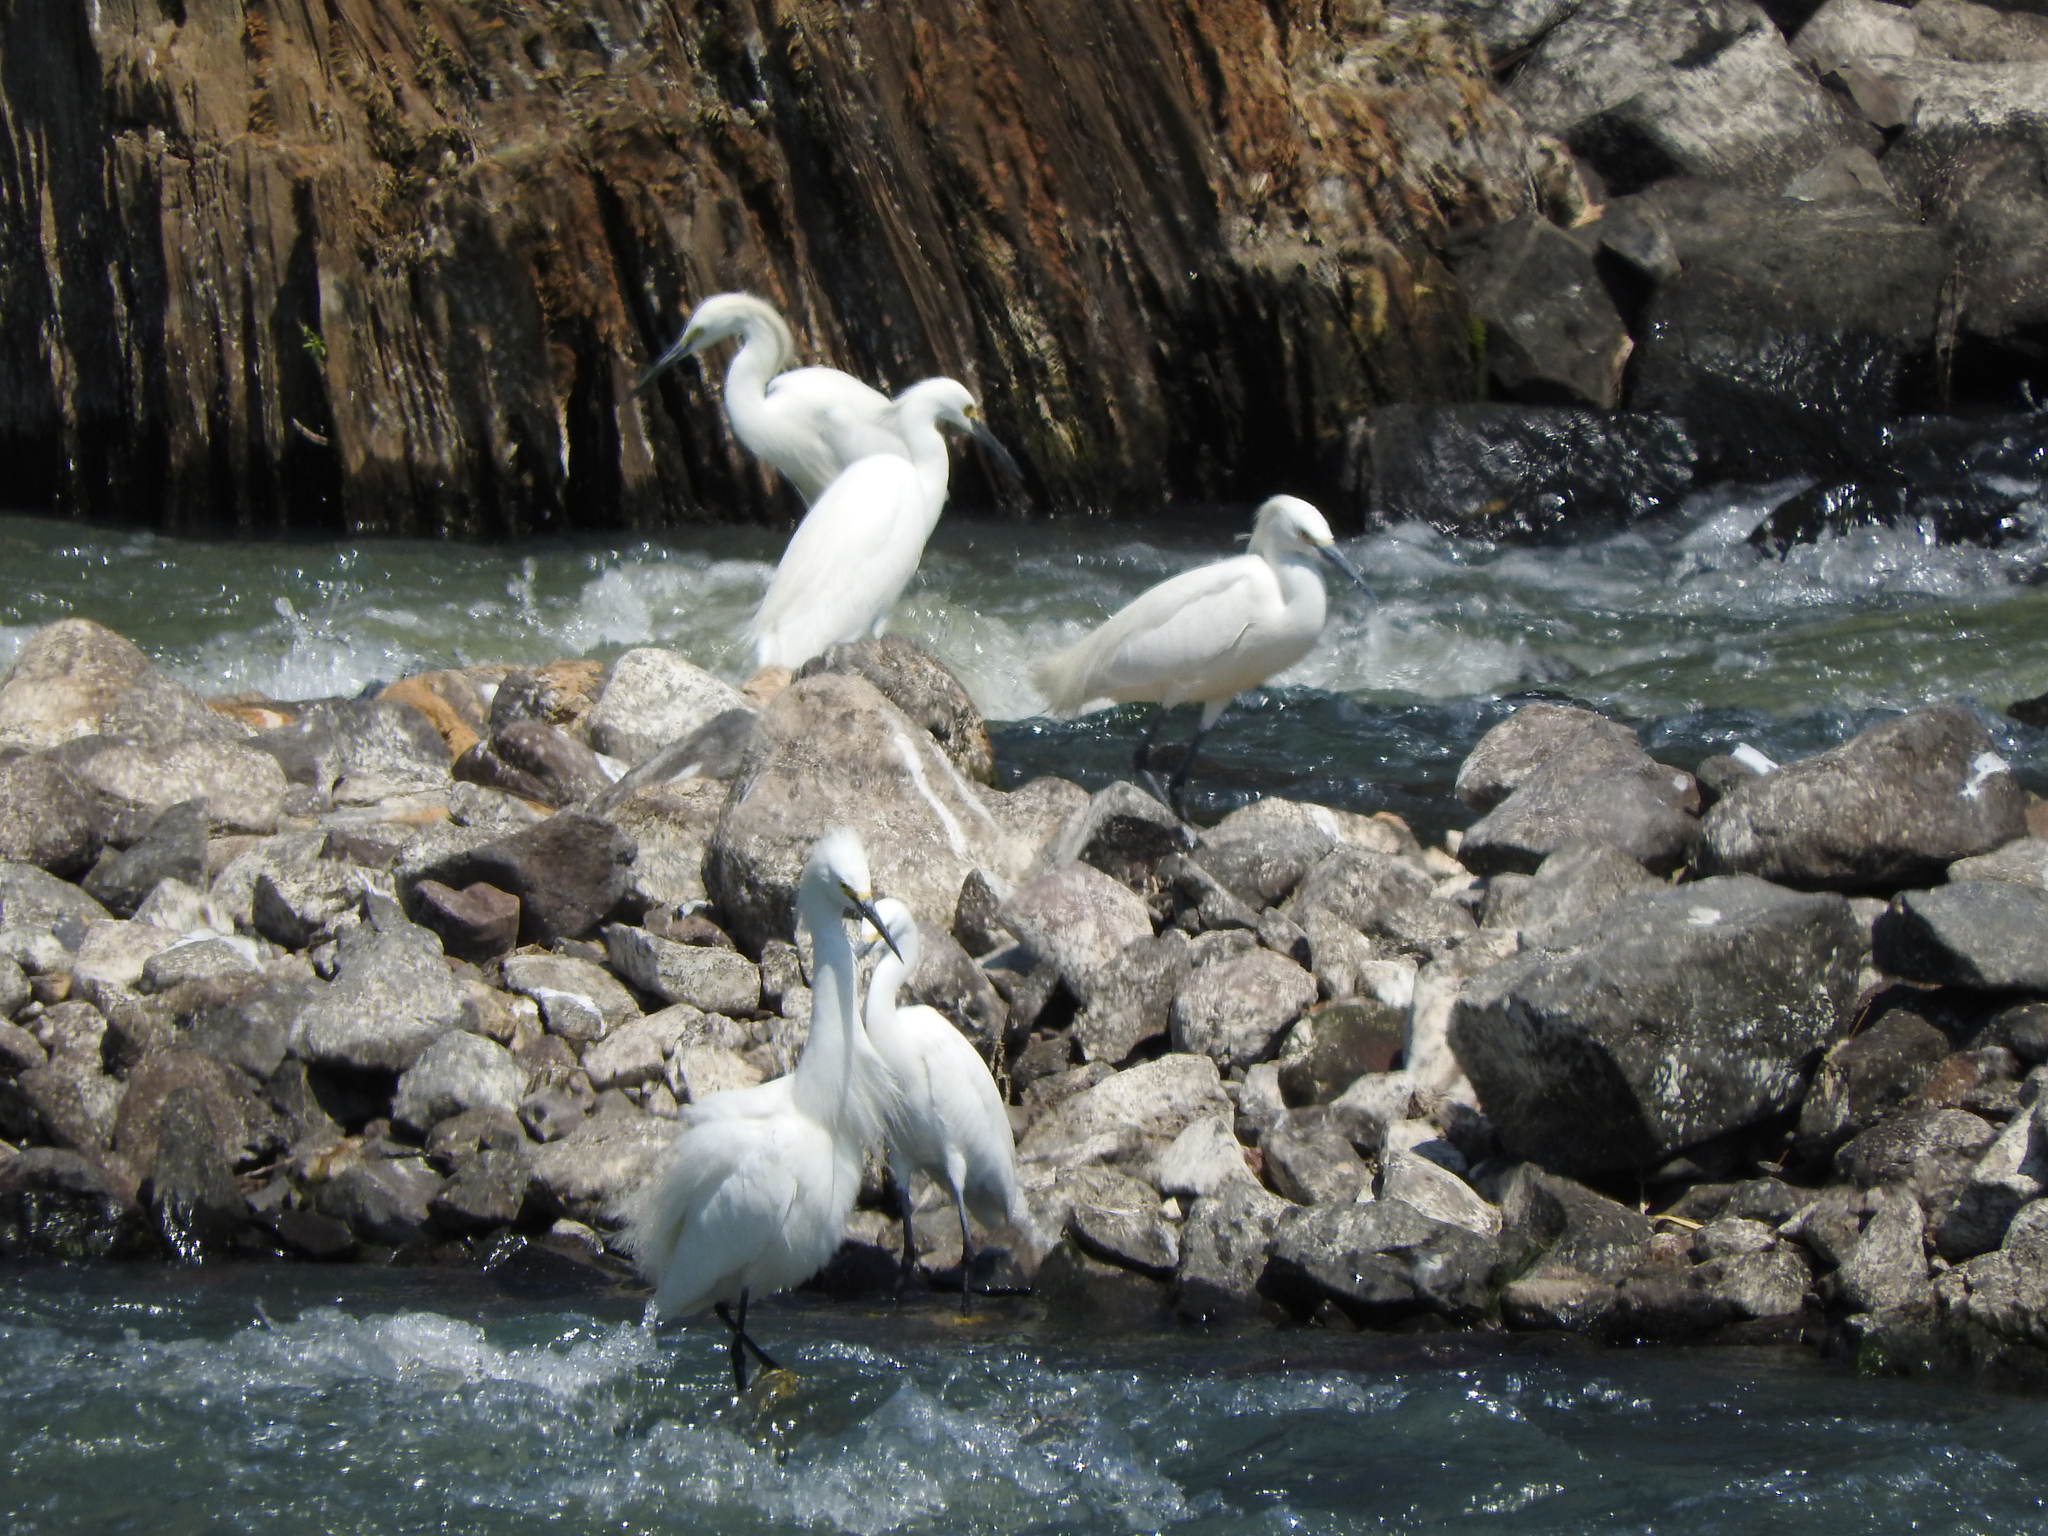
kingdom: Animalia
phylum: Chordata
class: Aves
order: Pelecaniformes
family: Ardeidae
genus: Egretta
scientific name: Egretta thula
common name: Snowy egret
